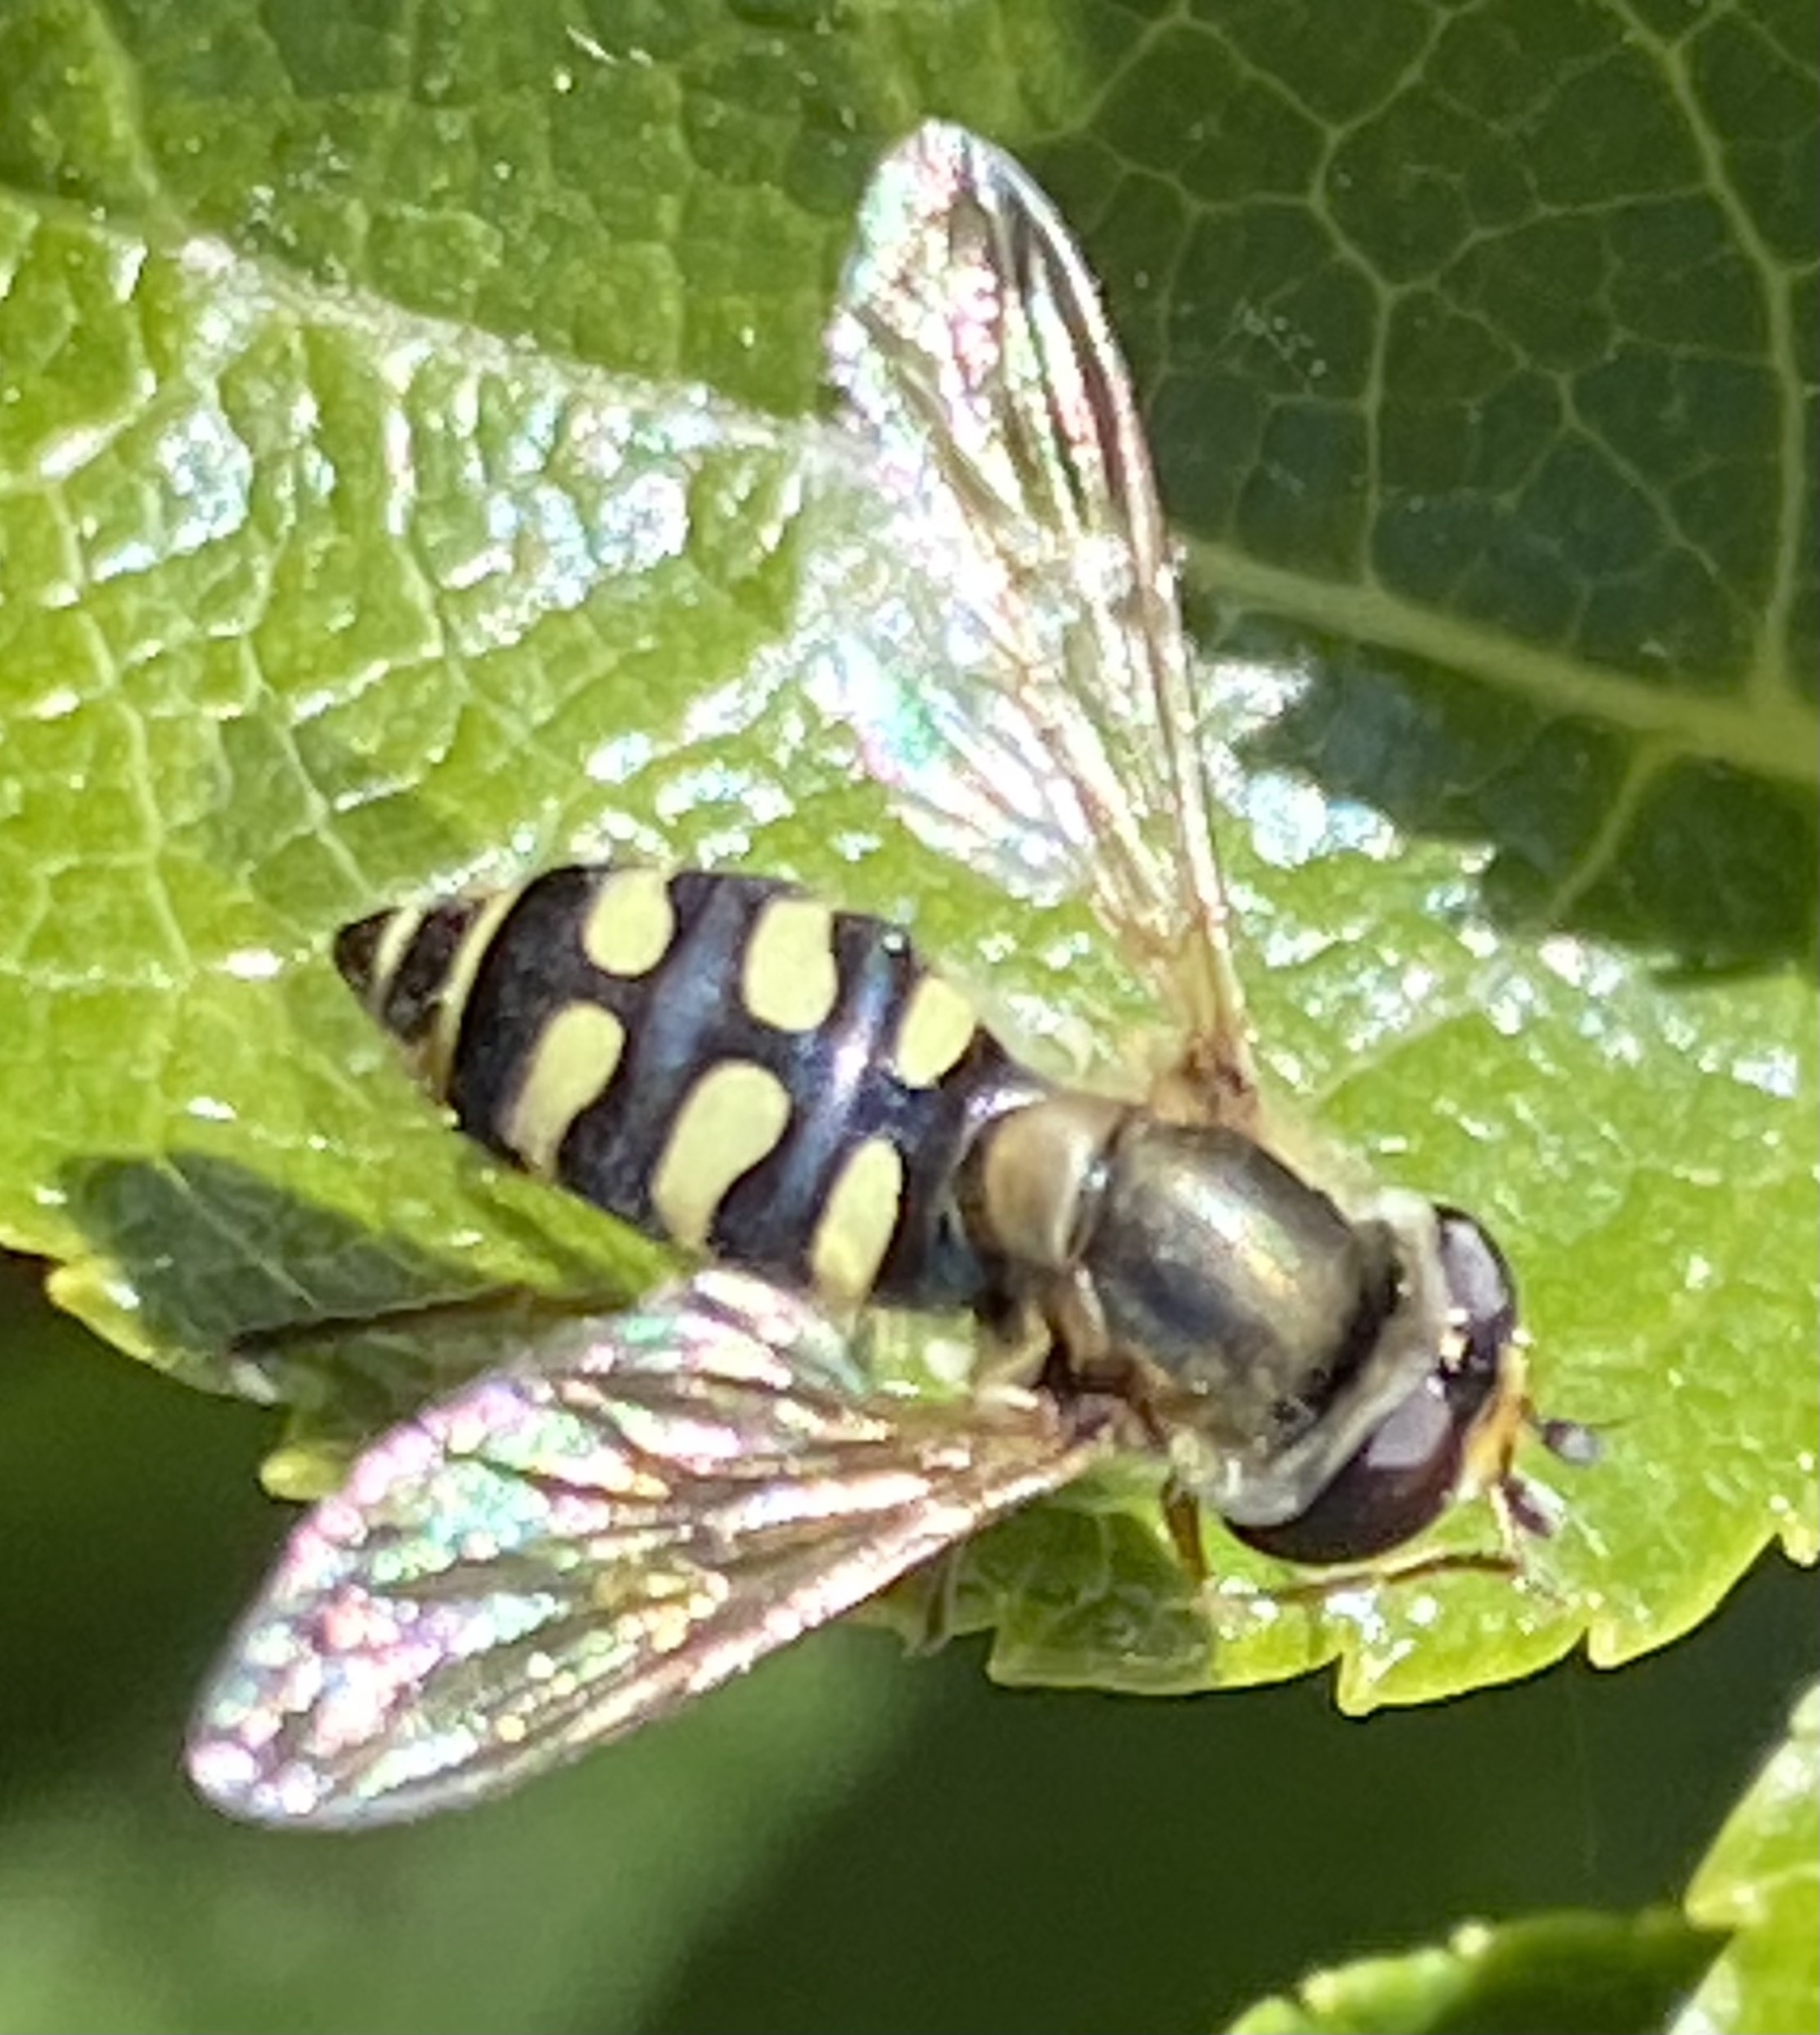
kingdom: Animalia
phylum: Arthropoda
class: Insecta
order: Diptera
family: Syrphidae
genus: Eupeodes
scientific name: Eupeodes corollae
